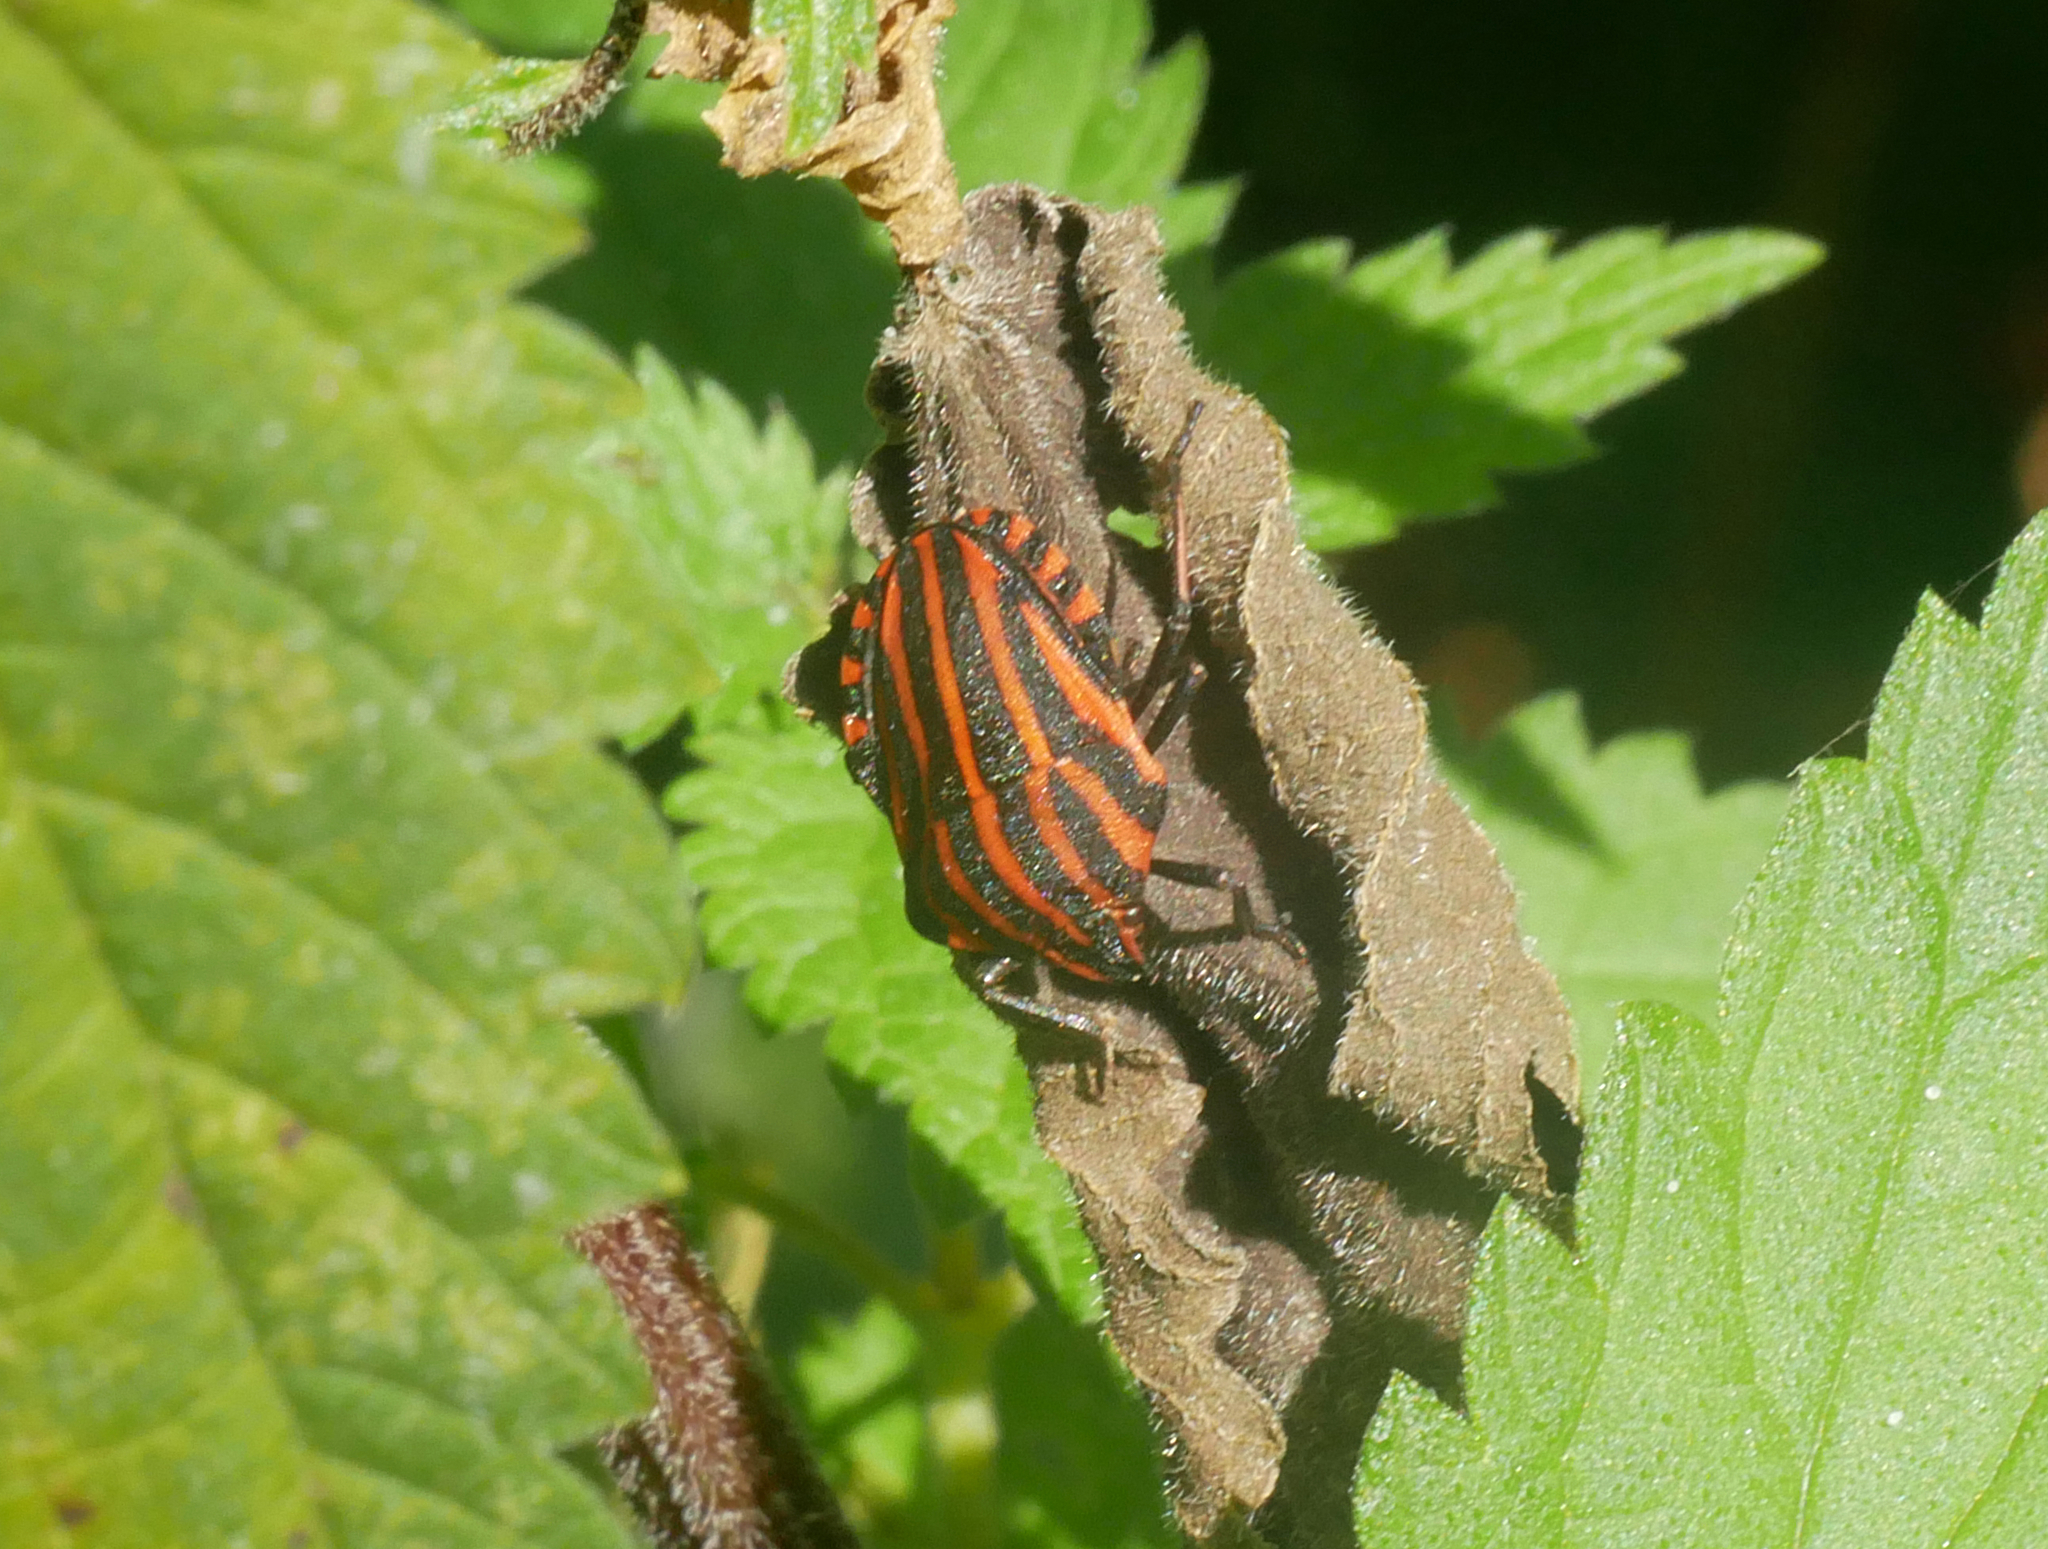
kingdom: Animalia
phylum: Arthropoda
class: Insecta
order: Hemiptera
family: Pentatomidae
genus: Graphosoma
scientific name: Graphosoma italicum
